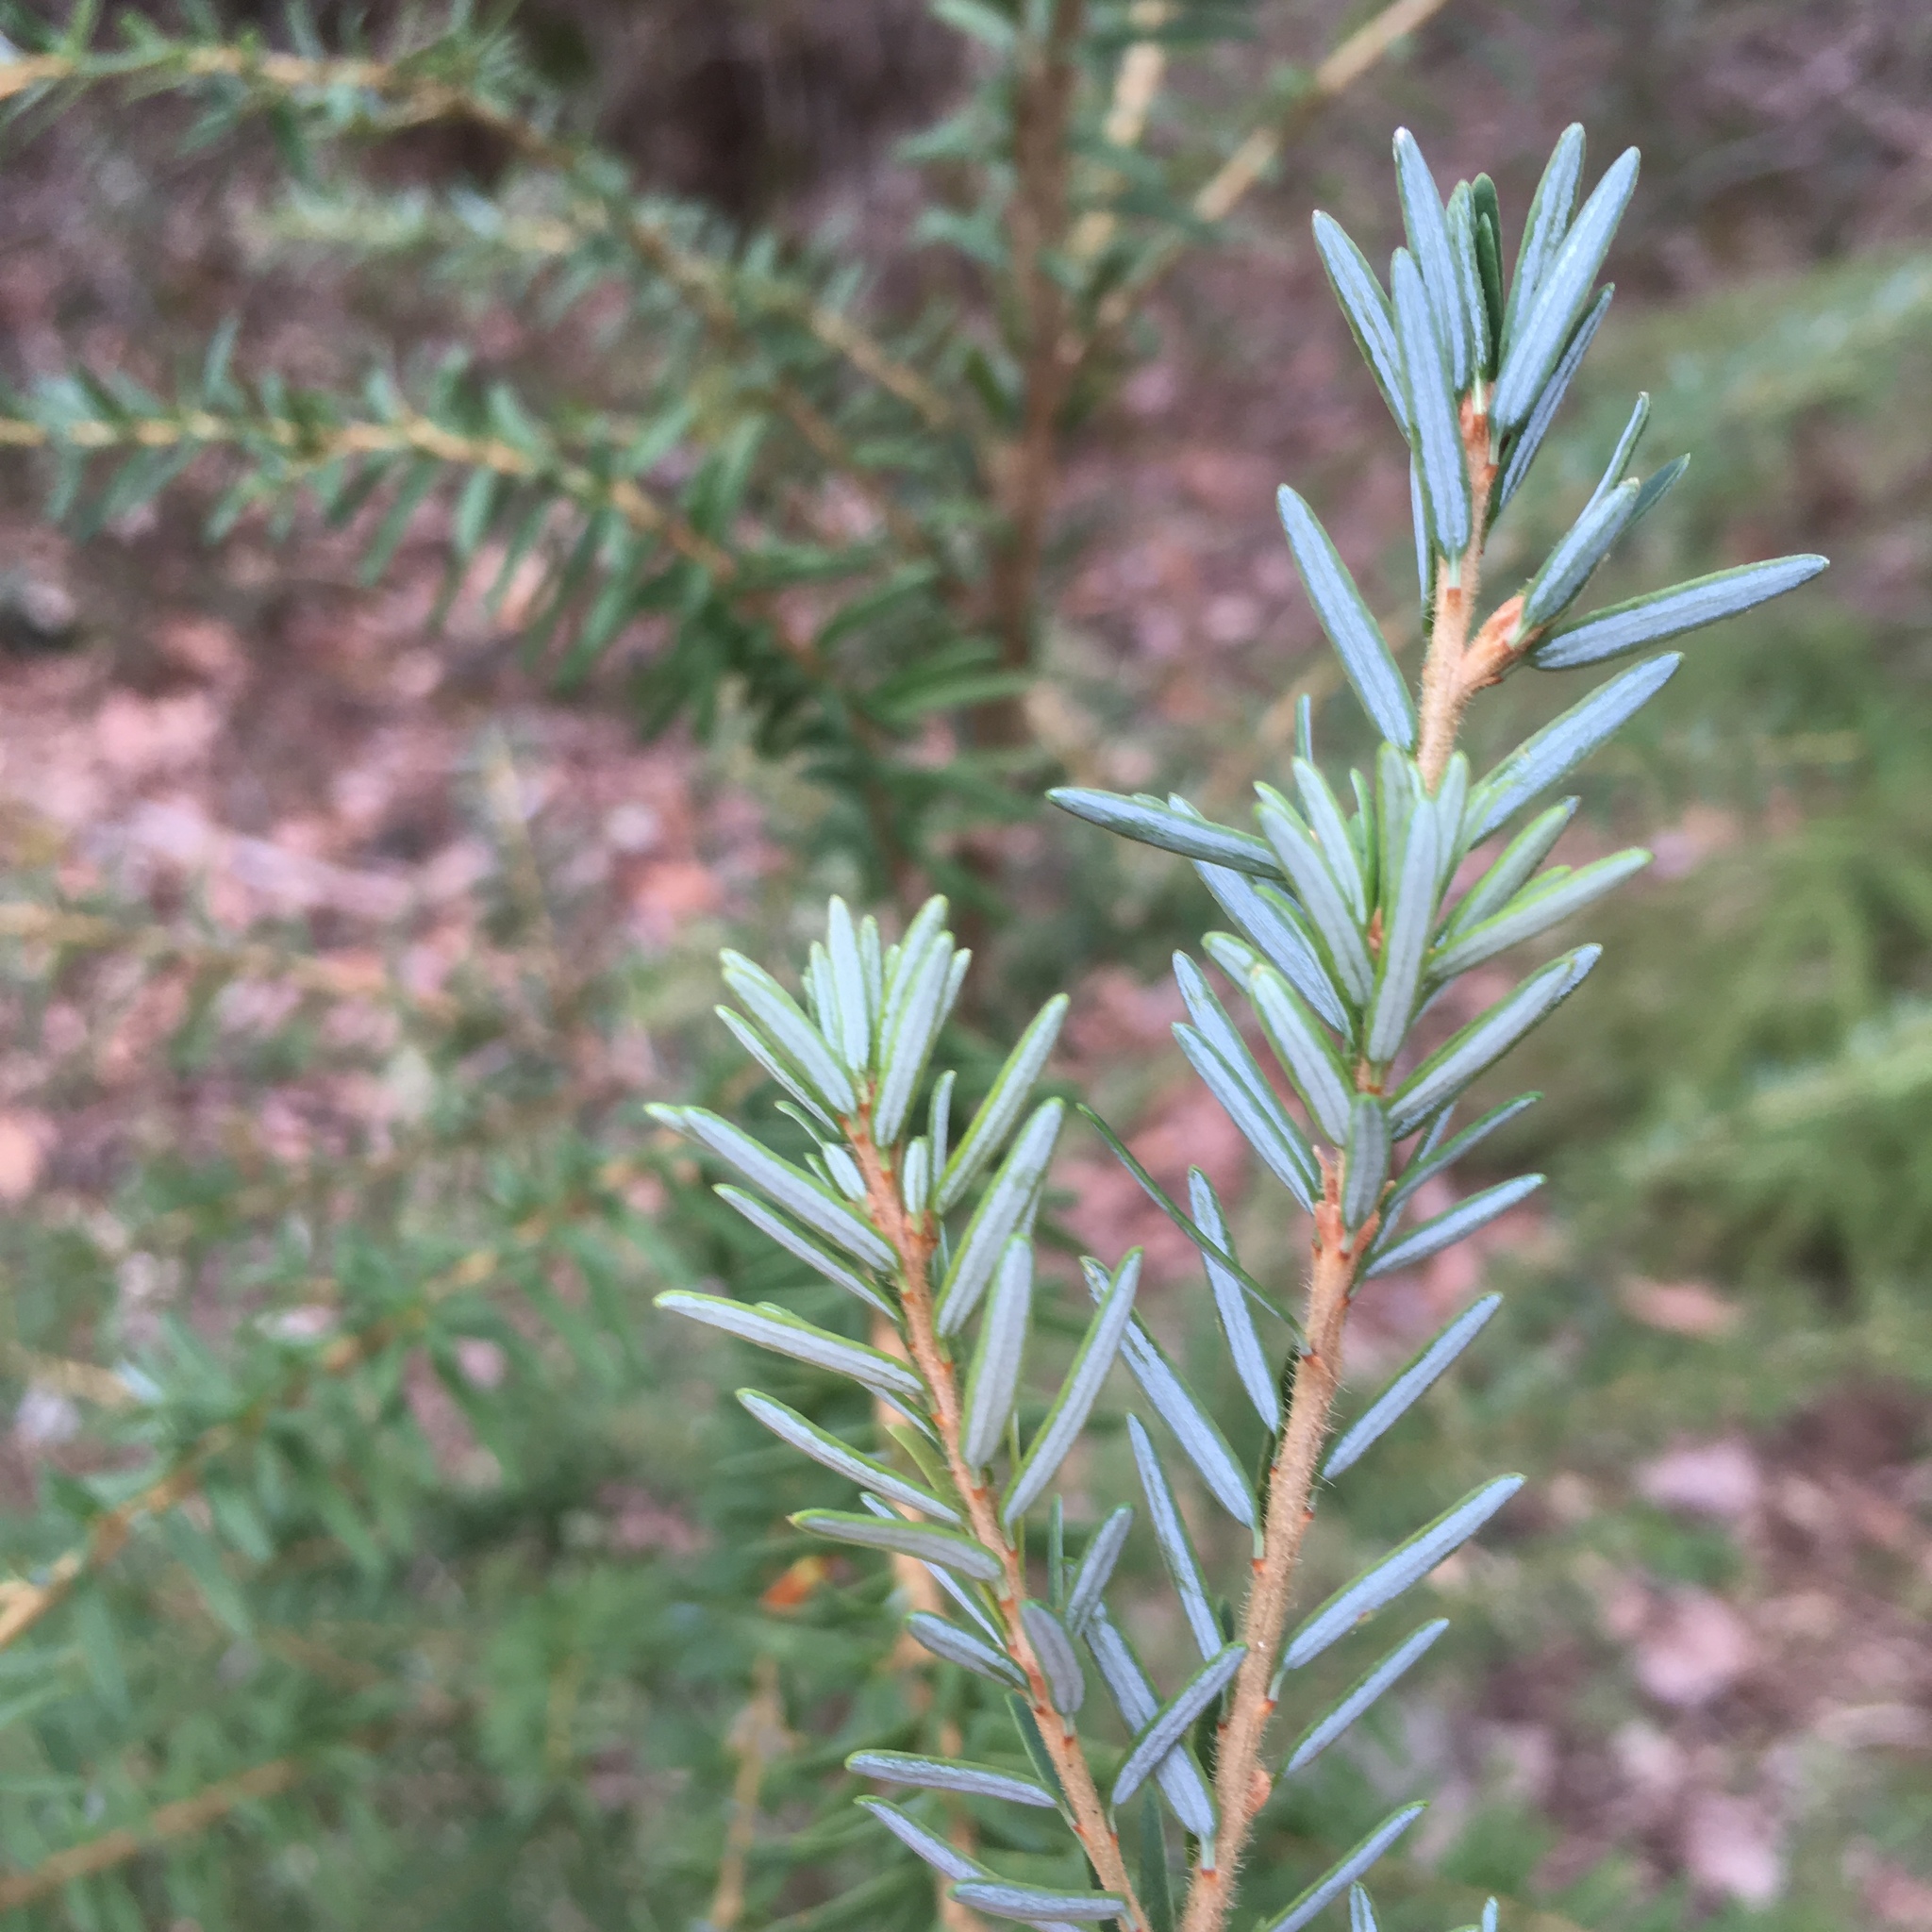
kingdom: Plantae
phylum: Tracheophyta
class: Pinopsida
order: Pinales
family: Pinaceae
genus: Tsuga
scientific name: Tsuga heterophylla
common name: Western hemlock
